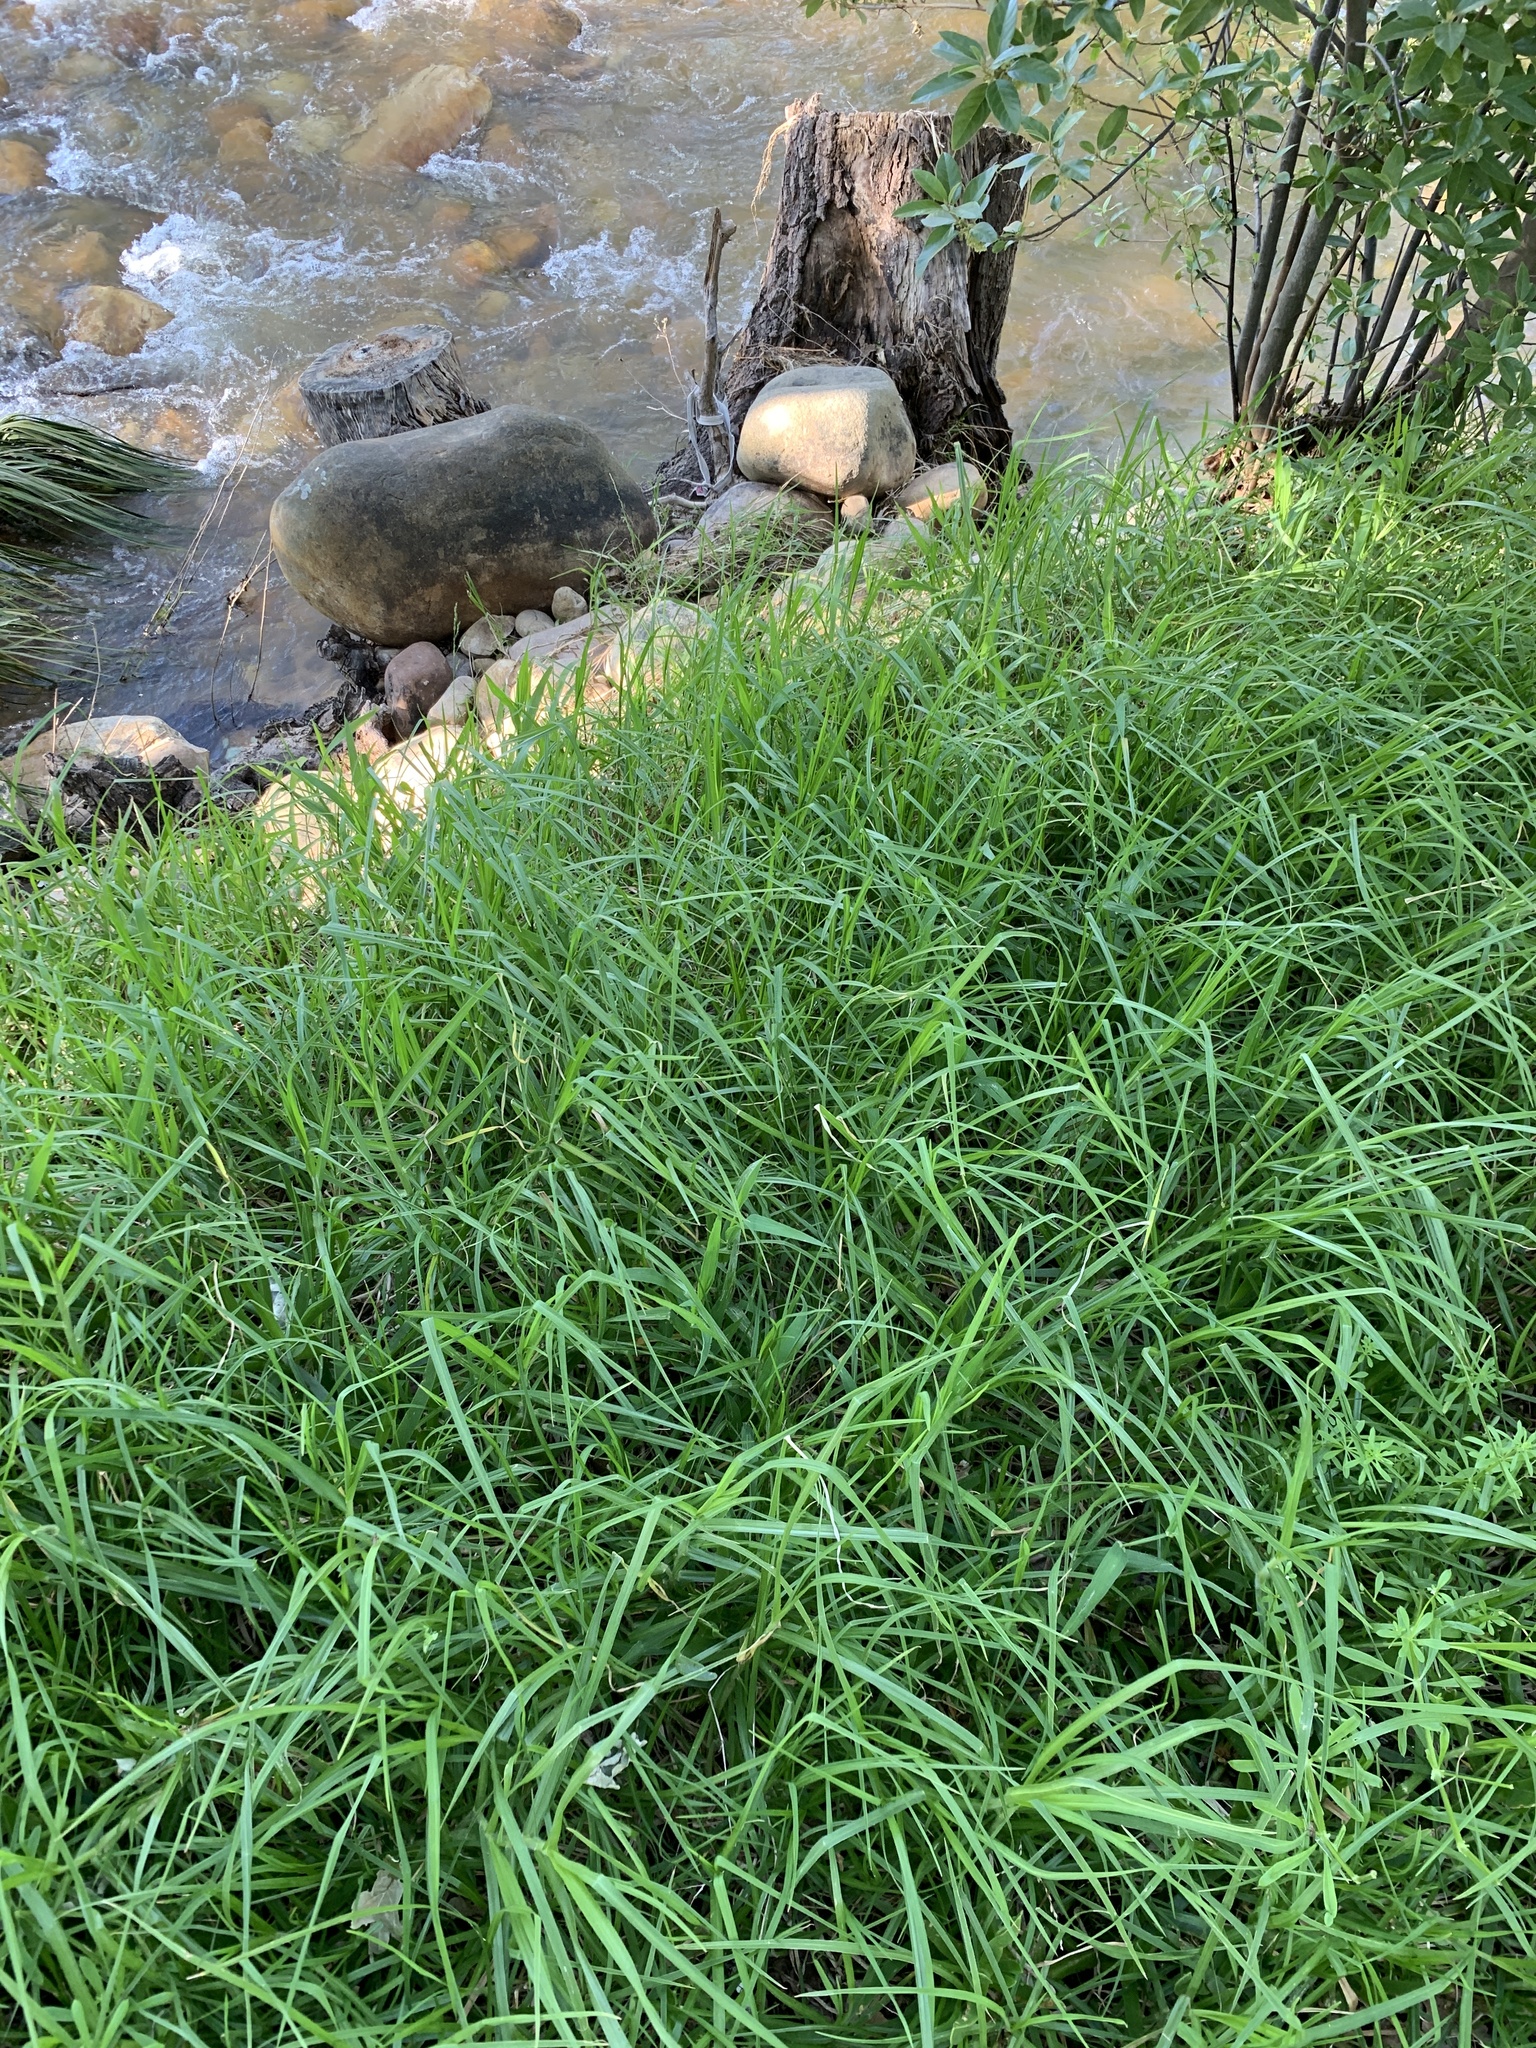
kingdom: Plantae
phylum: Tracheophyta
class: Liliopsida
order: Poales
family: Poaceae
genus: Cenchrus
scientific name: Cenchrus clandestinus
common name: Kikuyugrass
